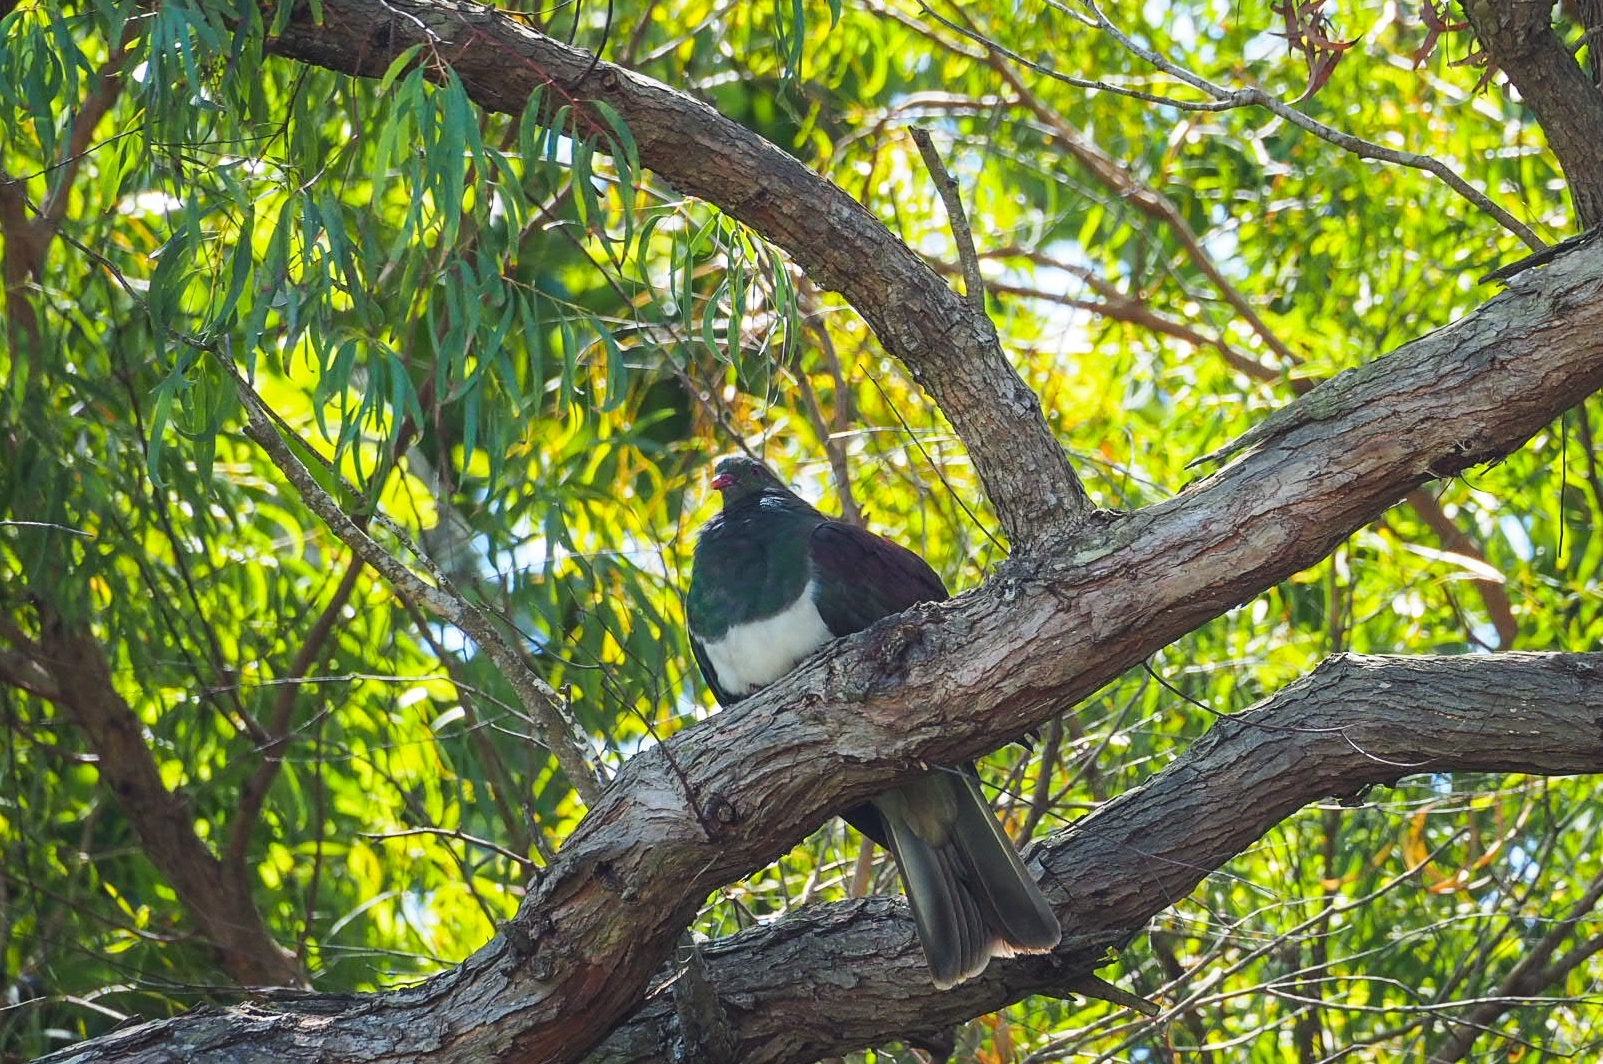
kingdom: Animalia
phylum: Chordata
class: Aves
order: Columbiformes
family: Columbidae
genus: Hemiphaga
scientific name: Hemiphaga novaeseelandiae
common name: New zealand pigeon
